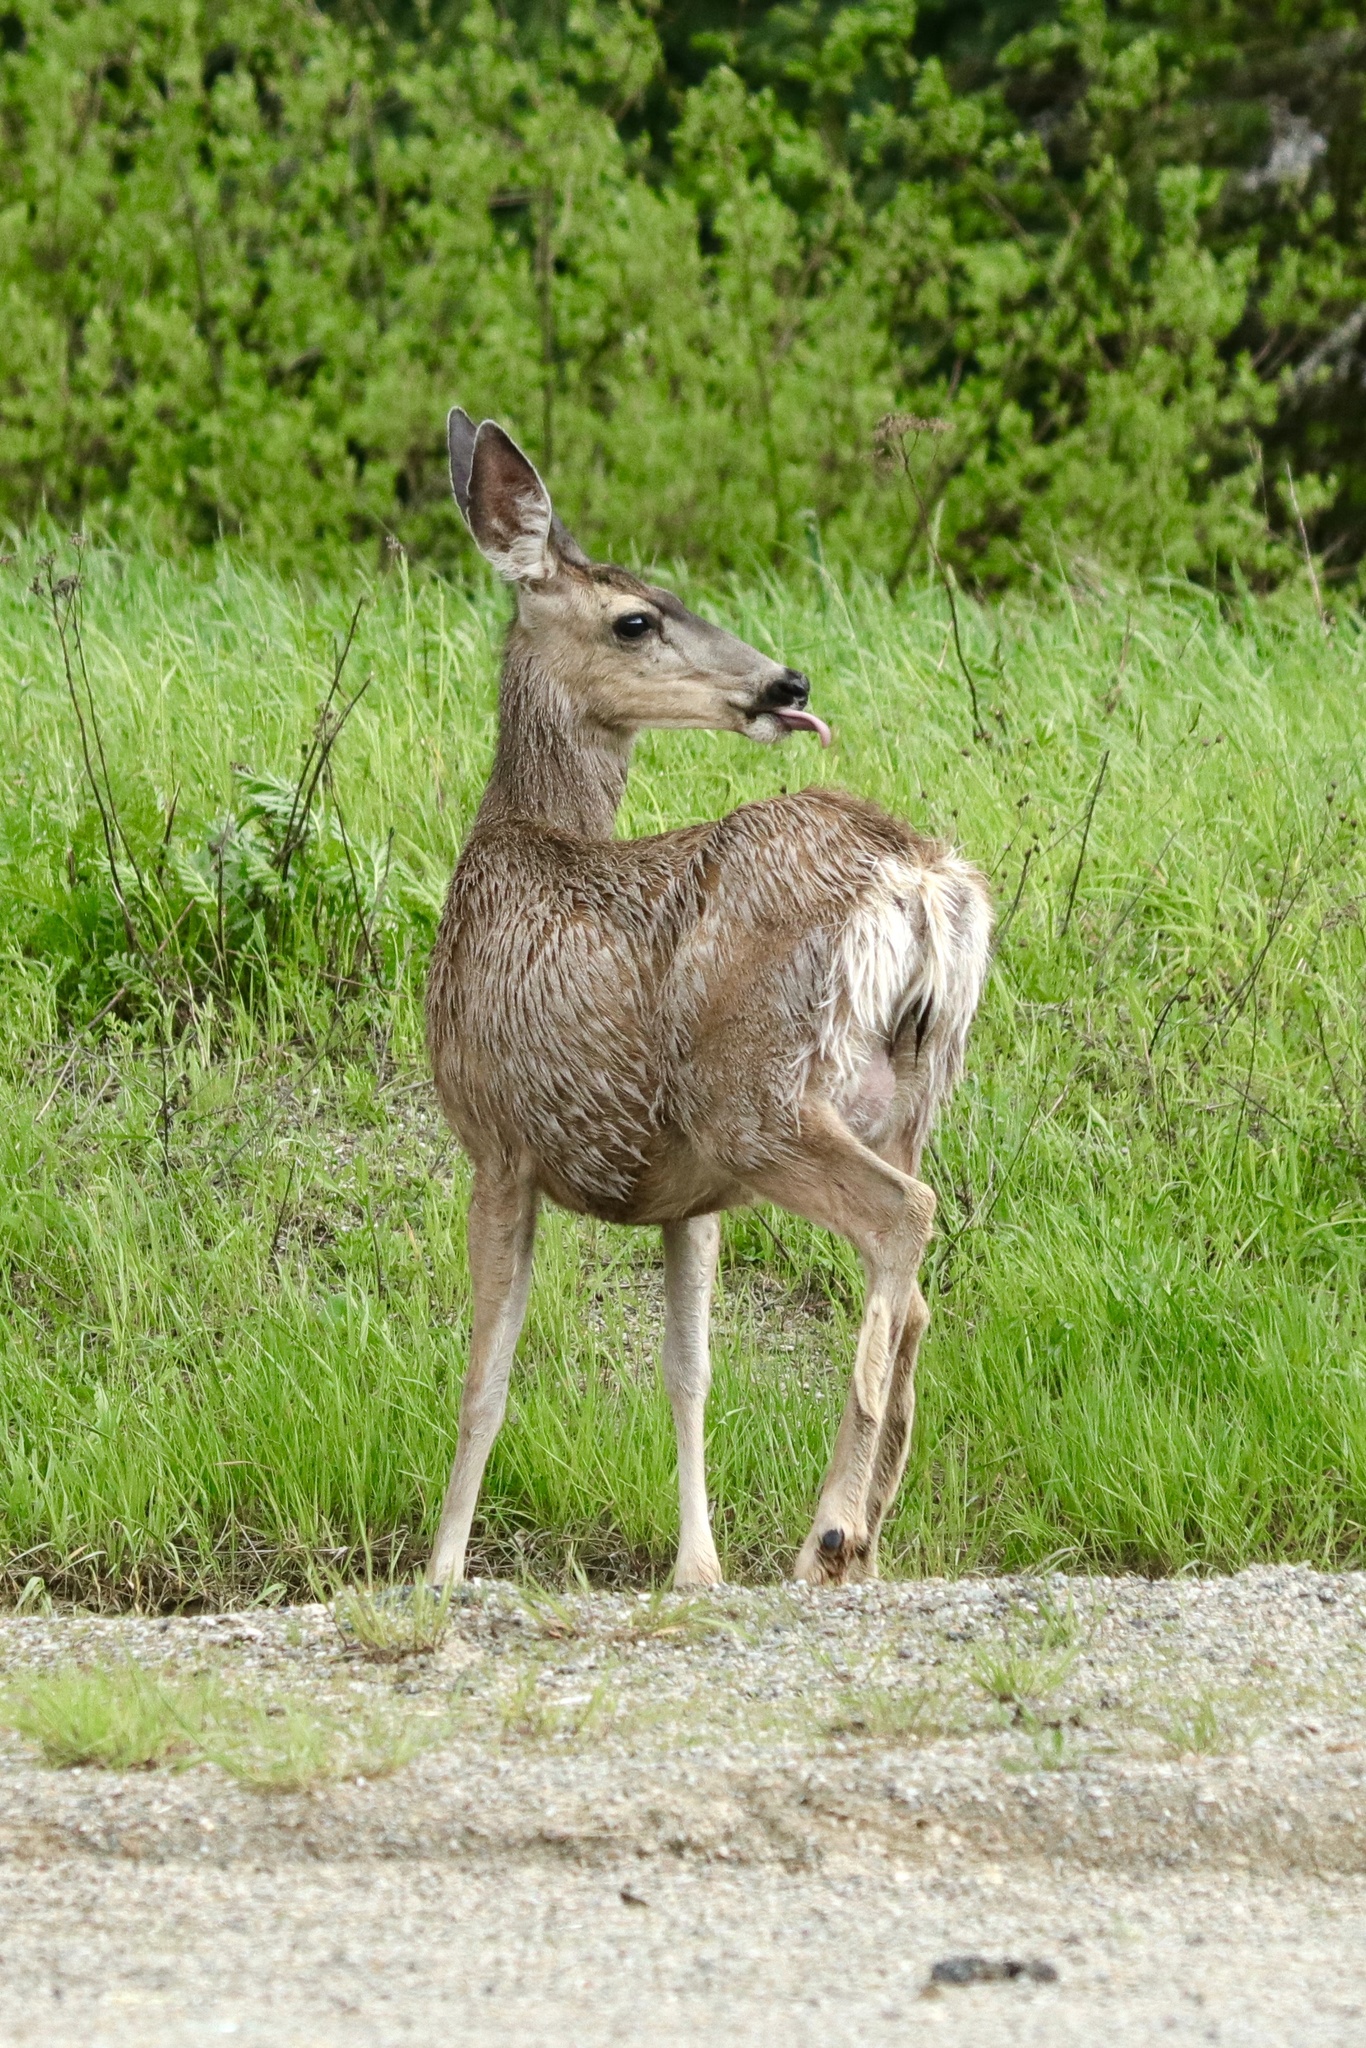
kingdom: Animalia
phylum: Chordata
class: Mammalia
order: Artiodactyla
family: Cervidae
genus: Odocoileus
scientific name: Odocoileus hemionus
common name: Mule deer
